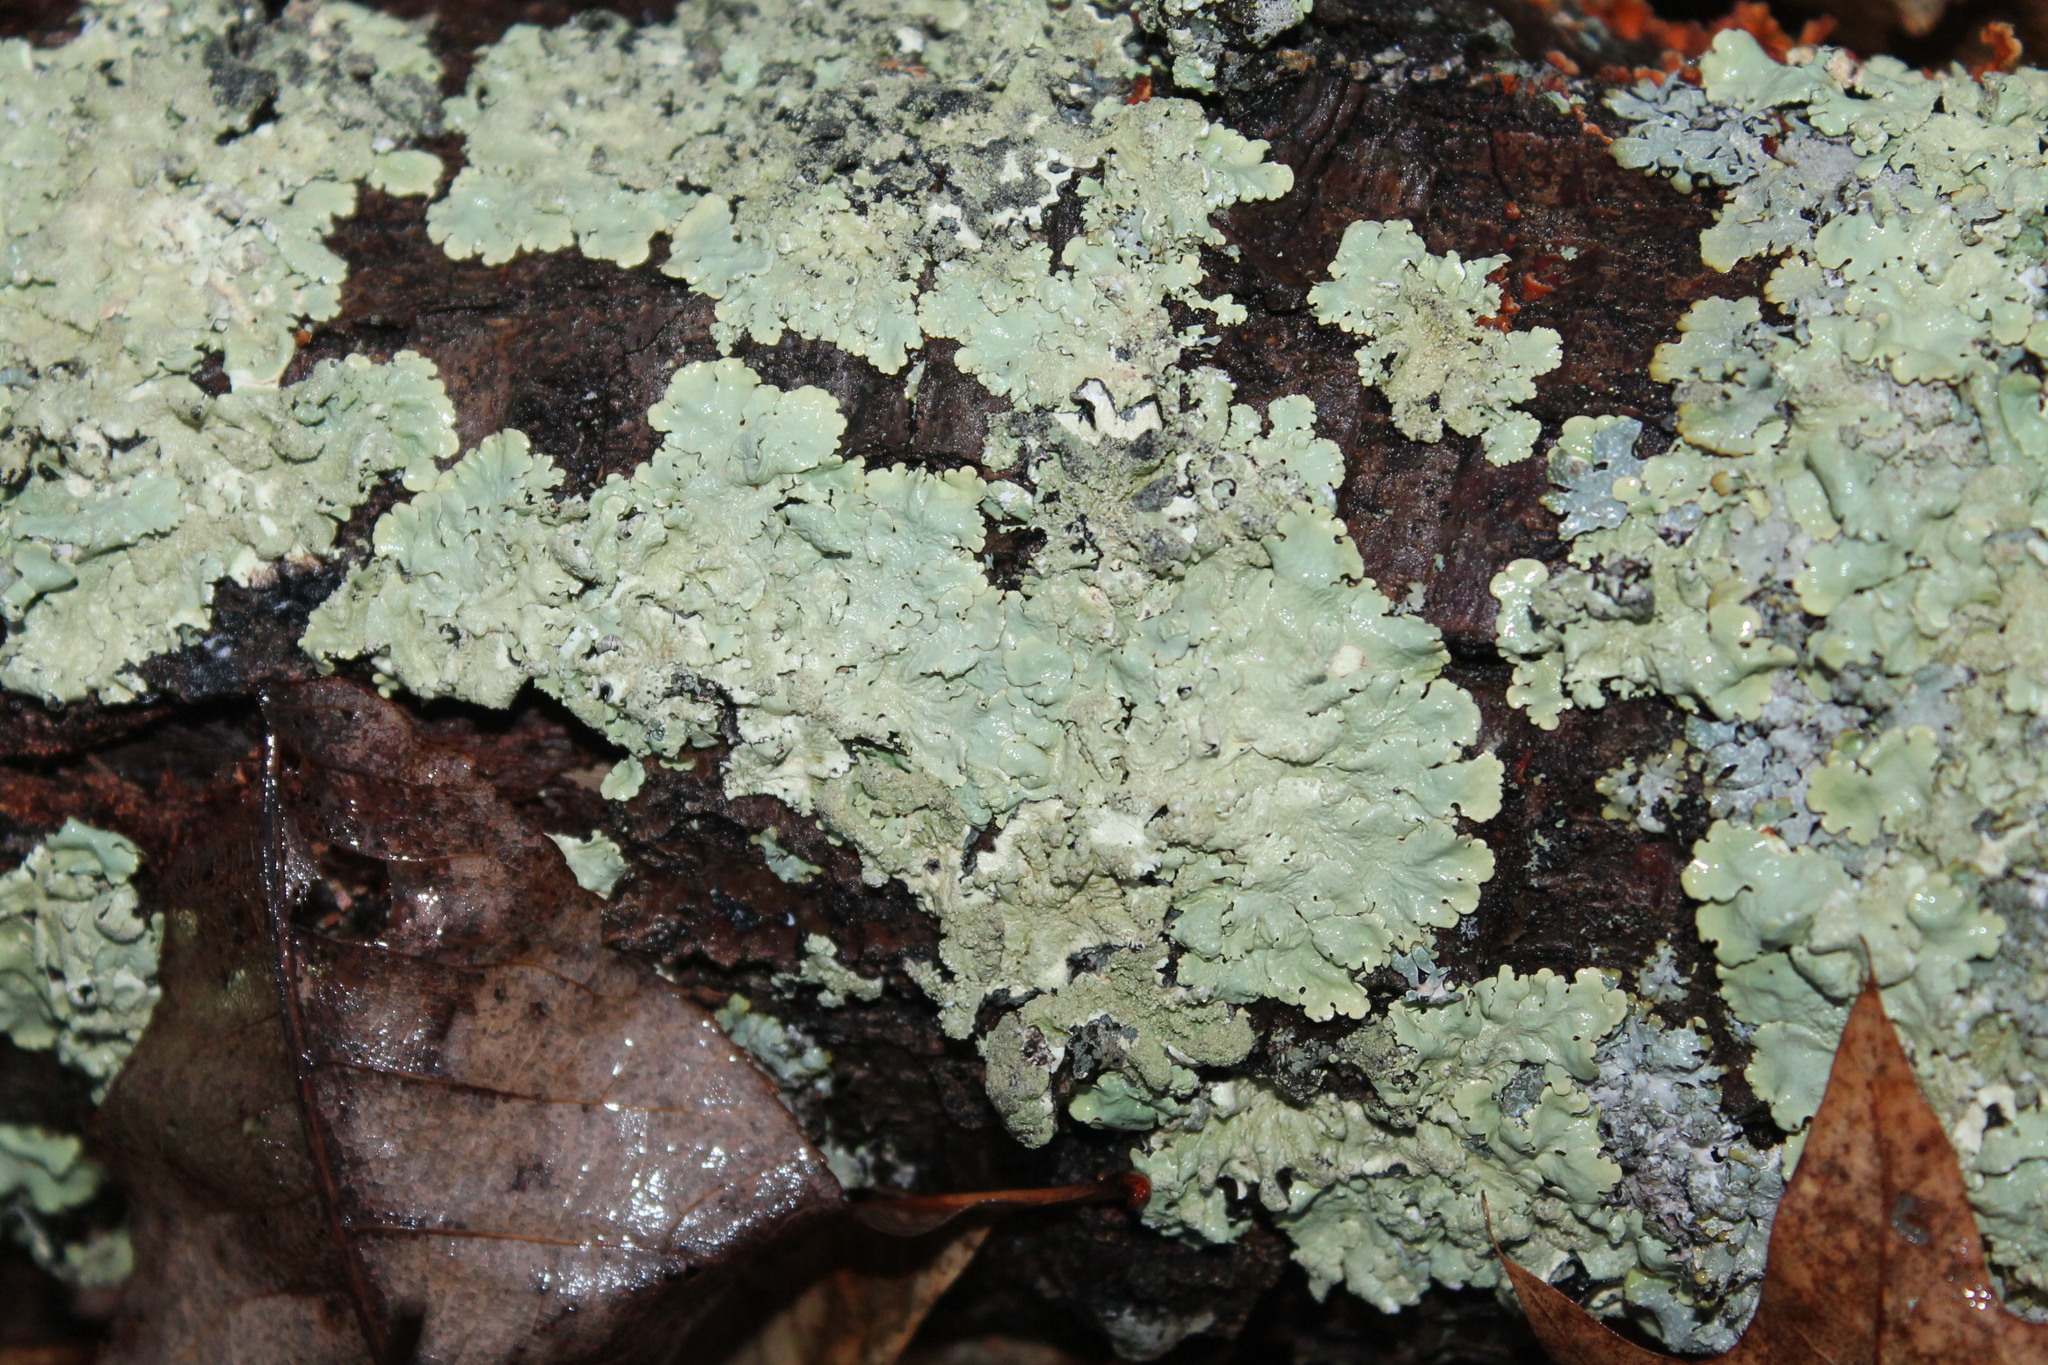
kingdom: Fungi
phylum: Ascomycota
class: Lecanoromycetes
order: Lecanorales
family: Parmeliaceae
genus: Flavopunctelia
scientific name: Flavopunctelia flaventior
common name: Speckled greenshield
